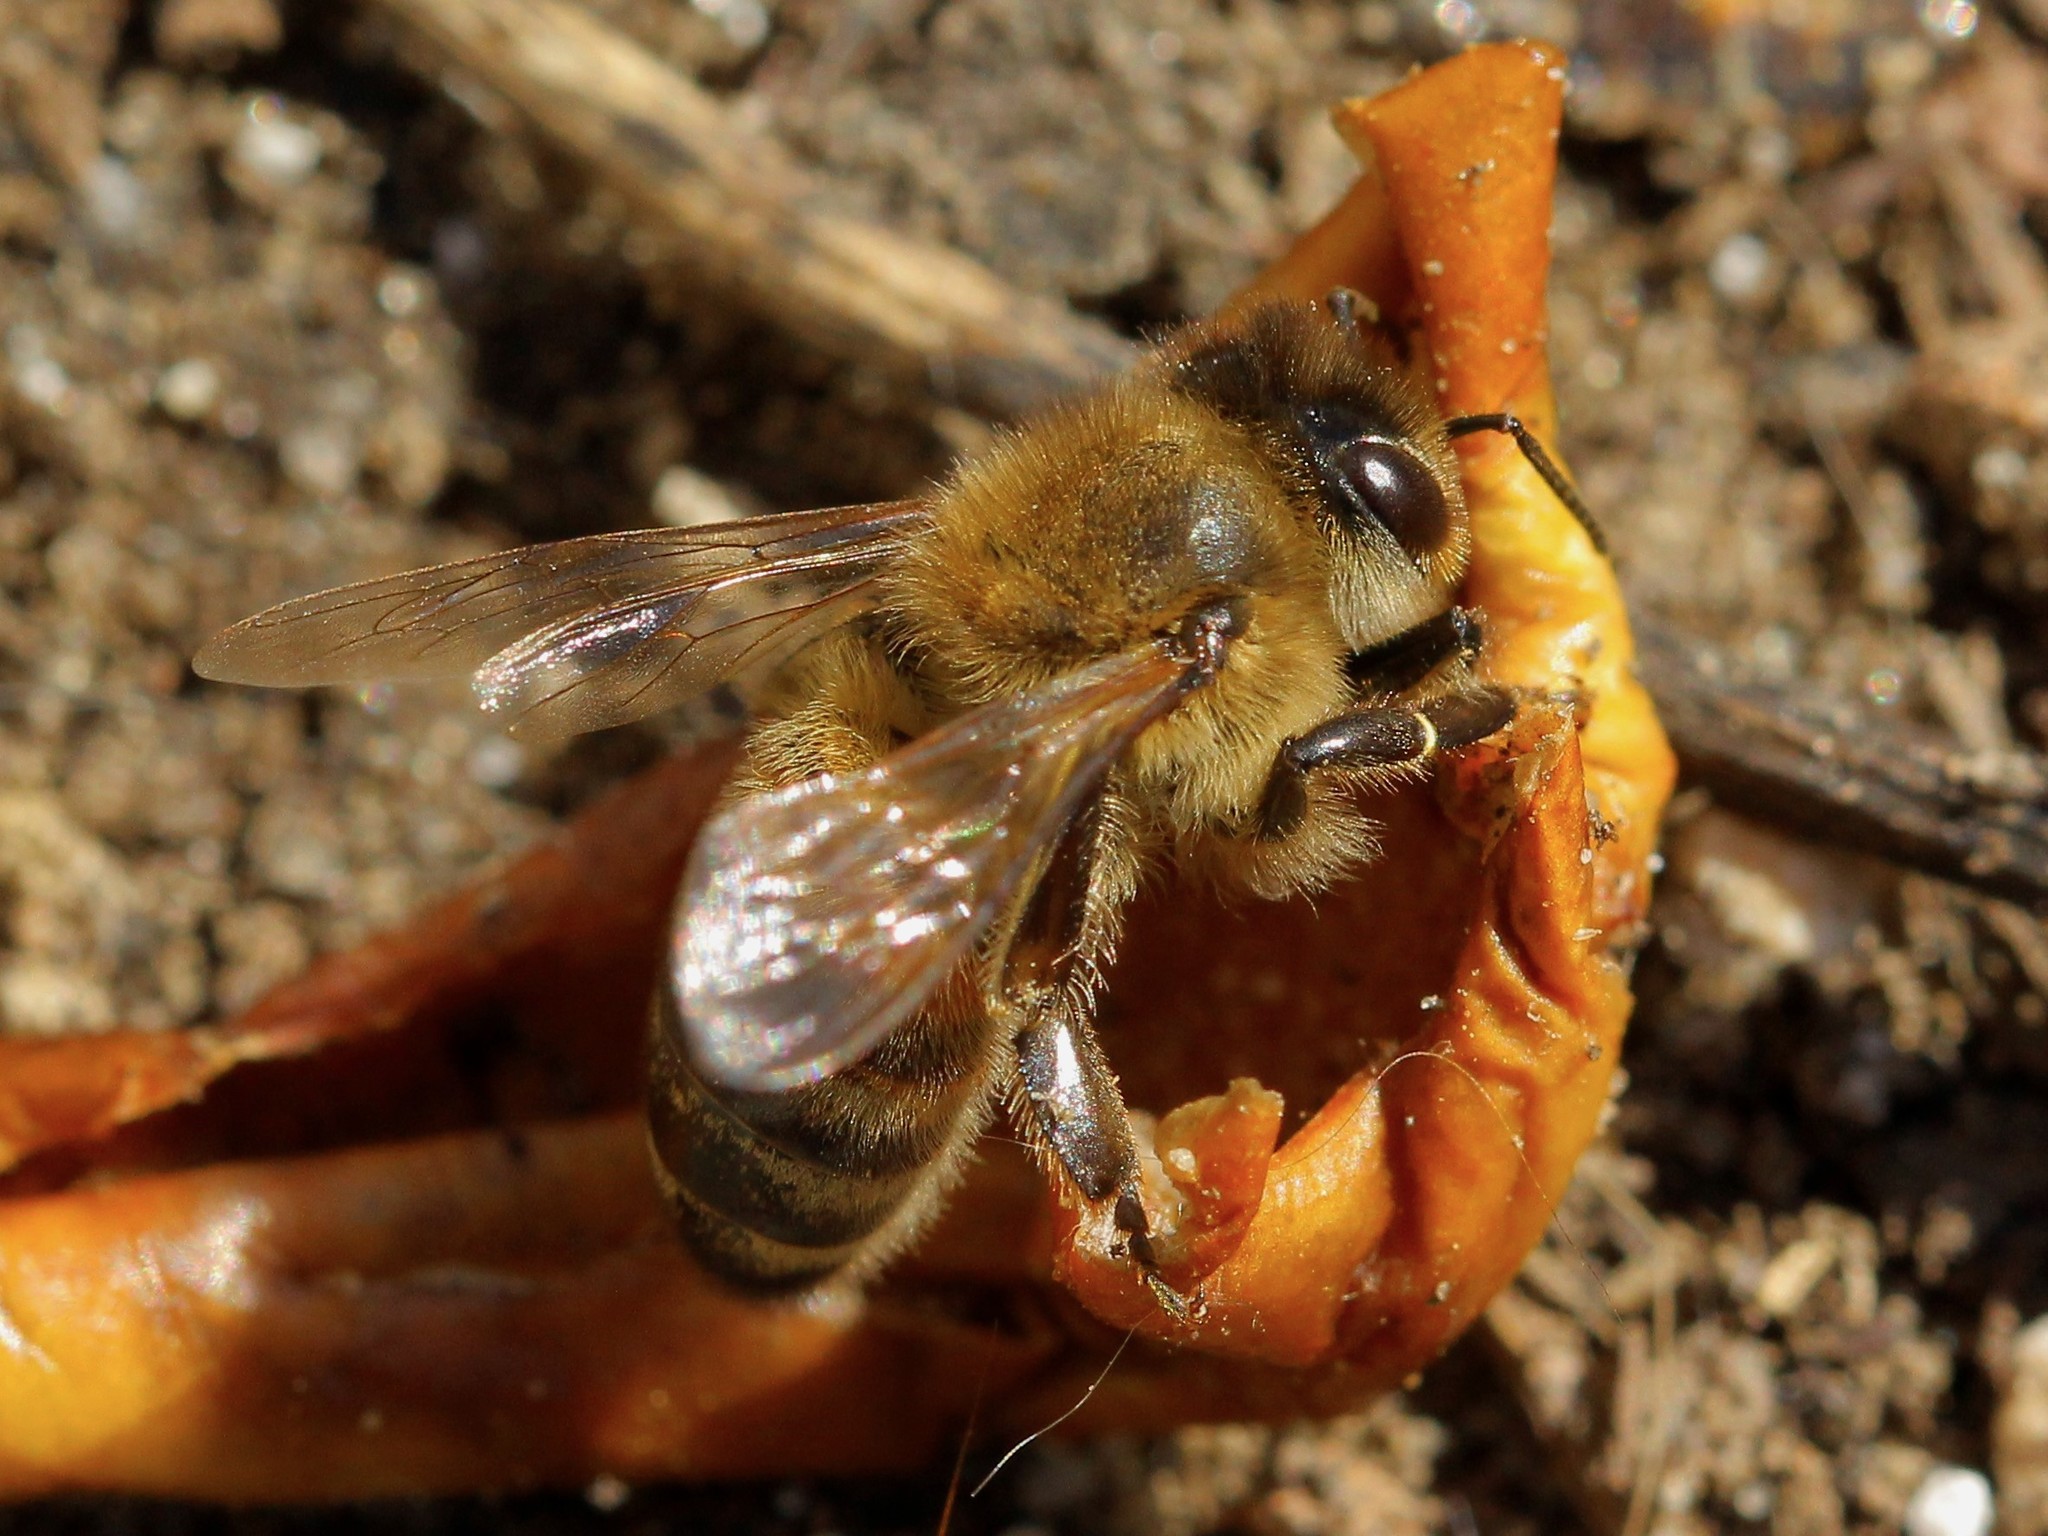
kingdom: Animalia
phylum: Arthropoda
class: Insecta
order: Hymenoptera
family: Apidae
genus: Apis
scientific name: Apis mellifera
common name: Honey bee
